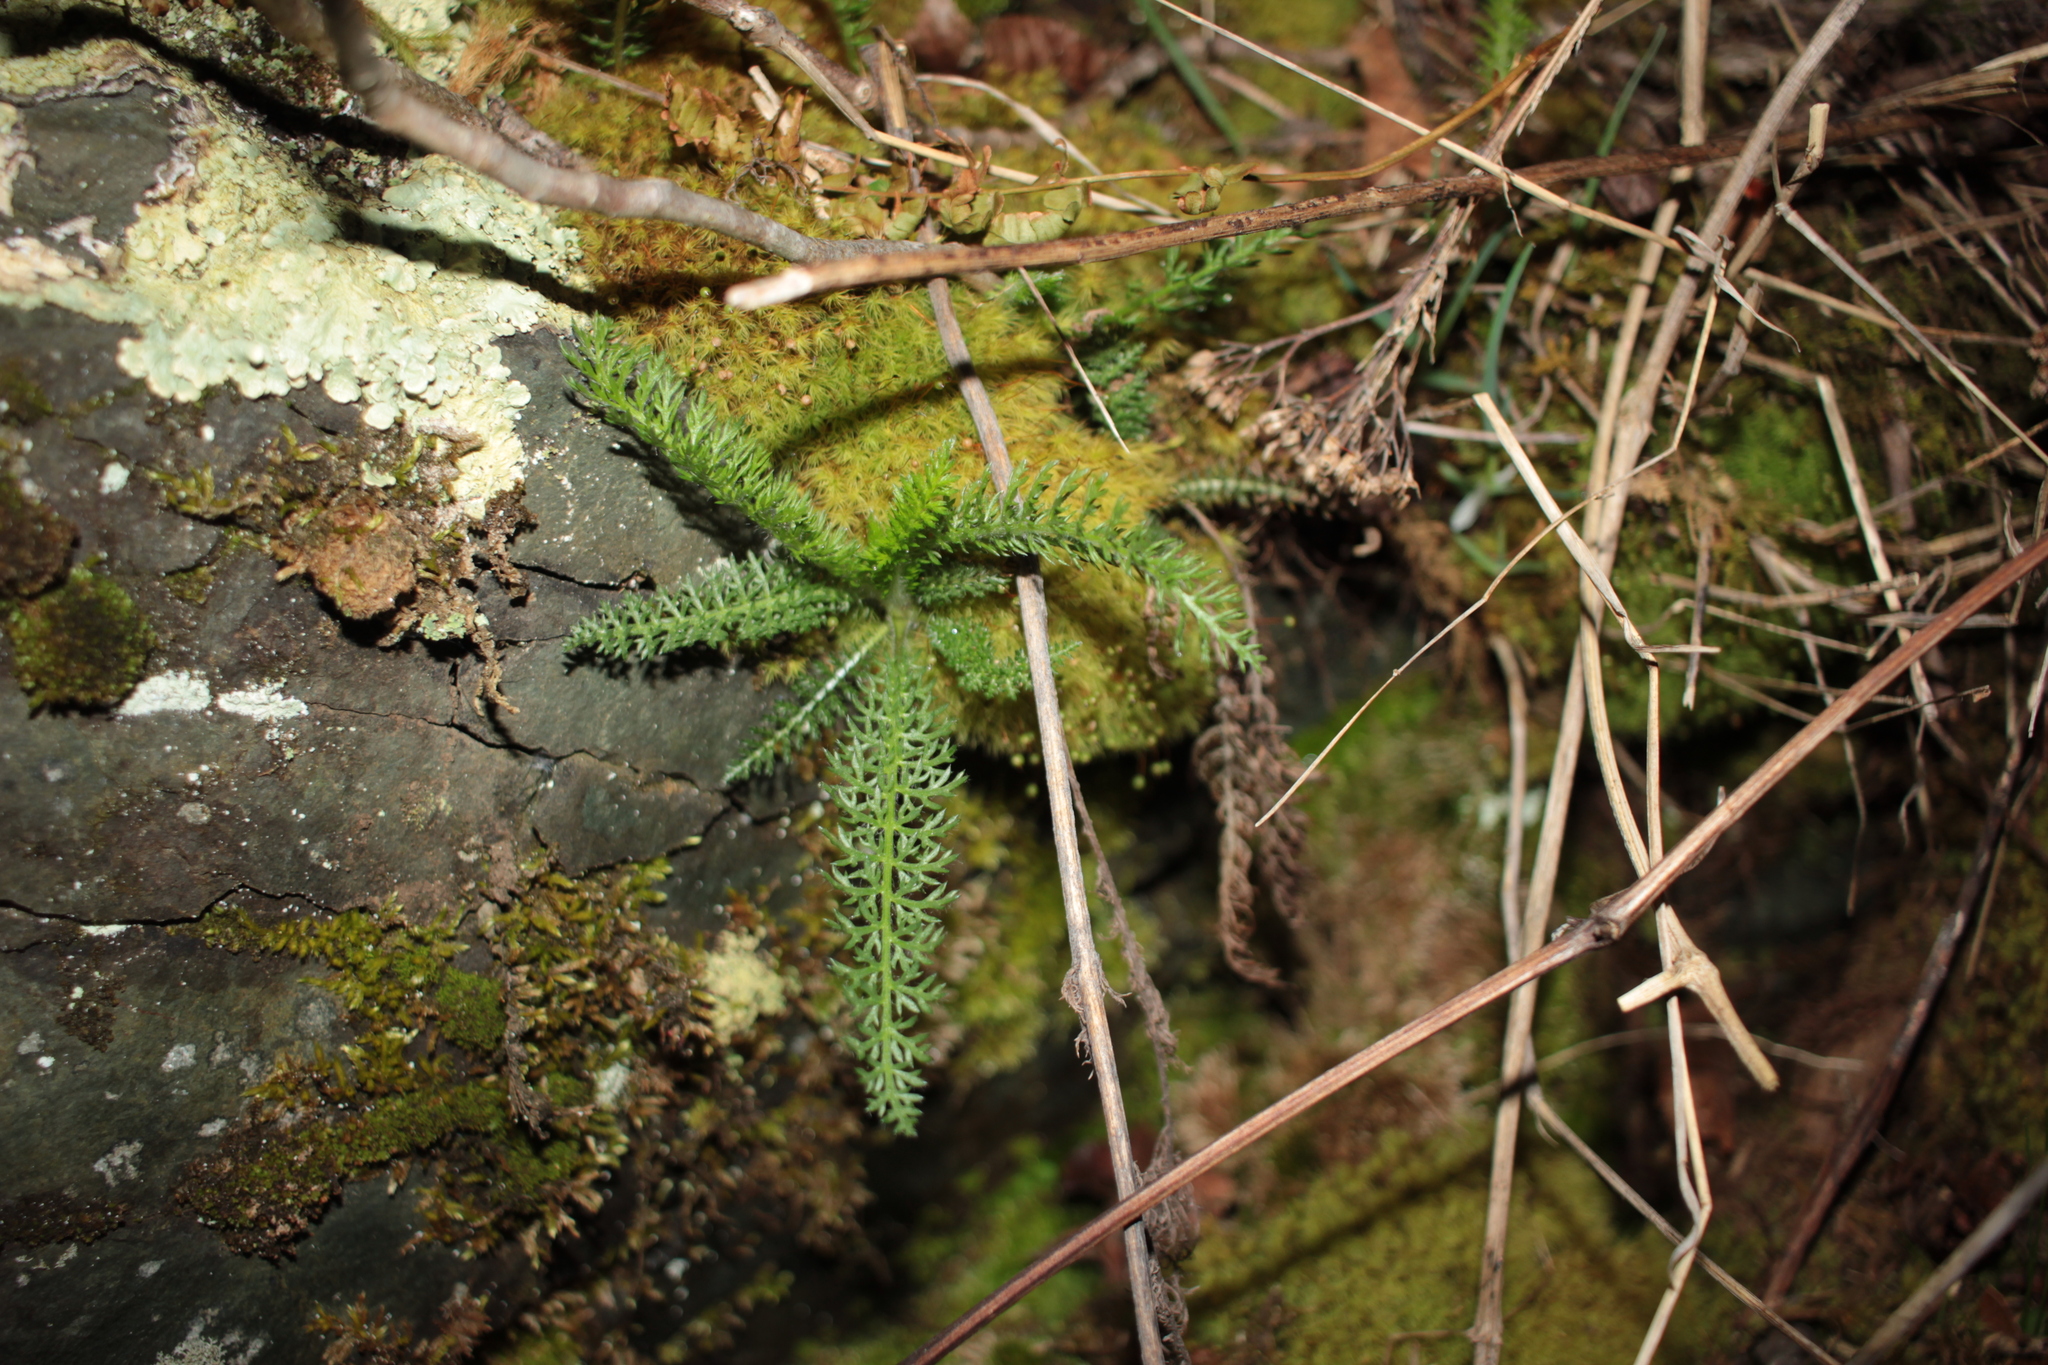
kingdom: Plantae
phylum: Tracheophyta
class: Magnoliopsida
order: Asterales
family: Asteraceae
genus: Achillea
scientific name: Achillea millefolium
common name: Yarrow
